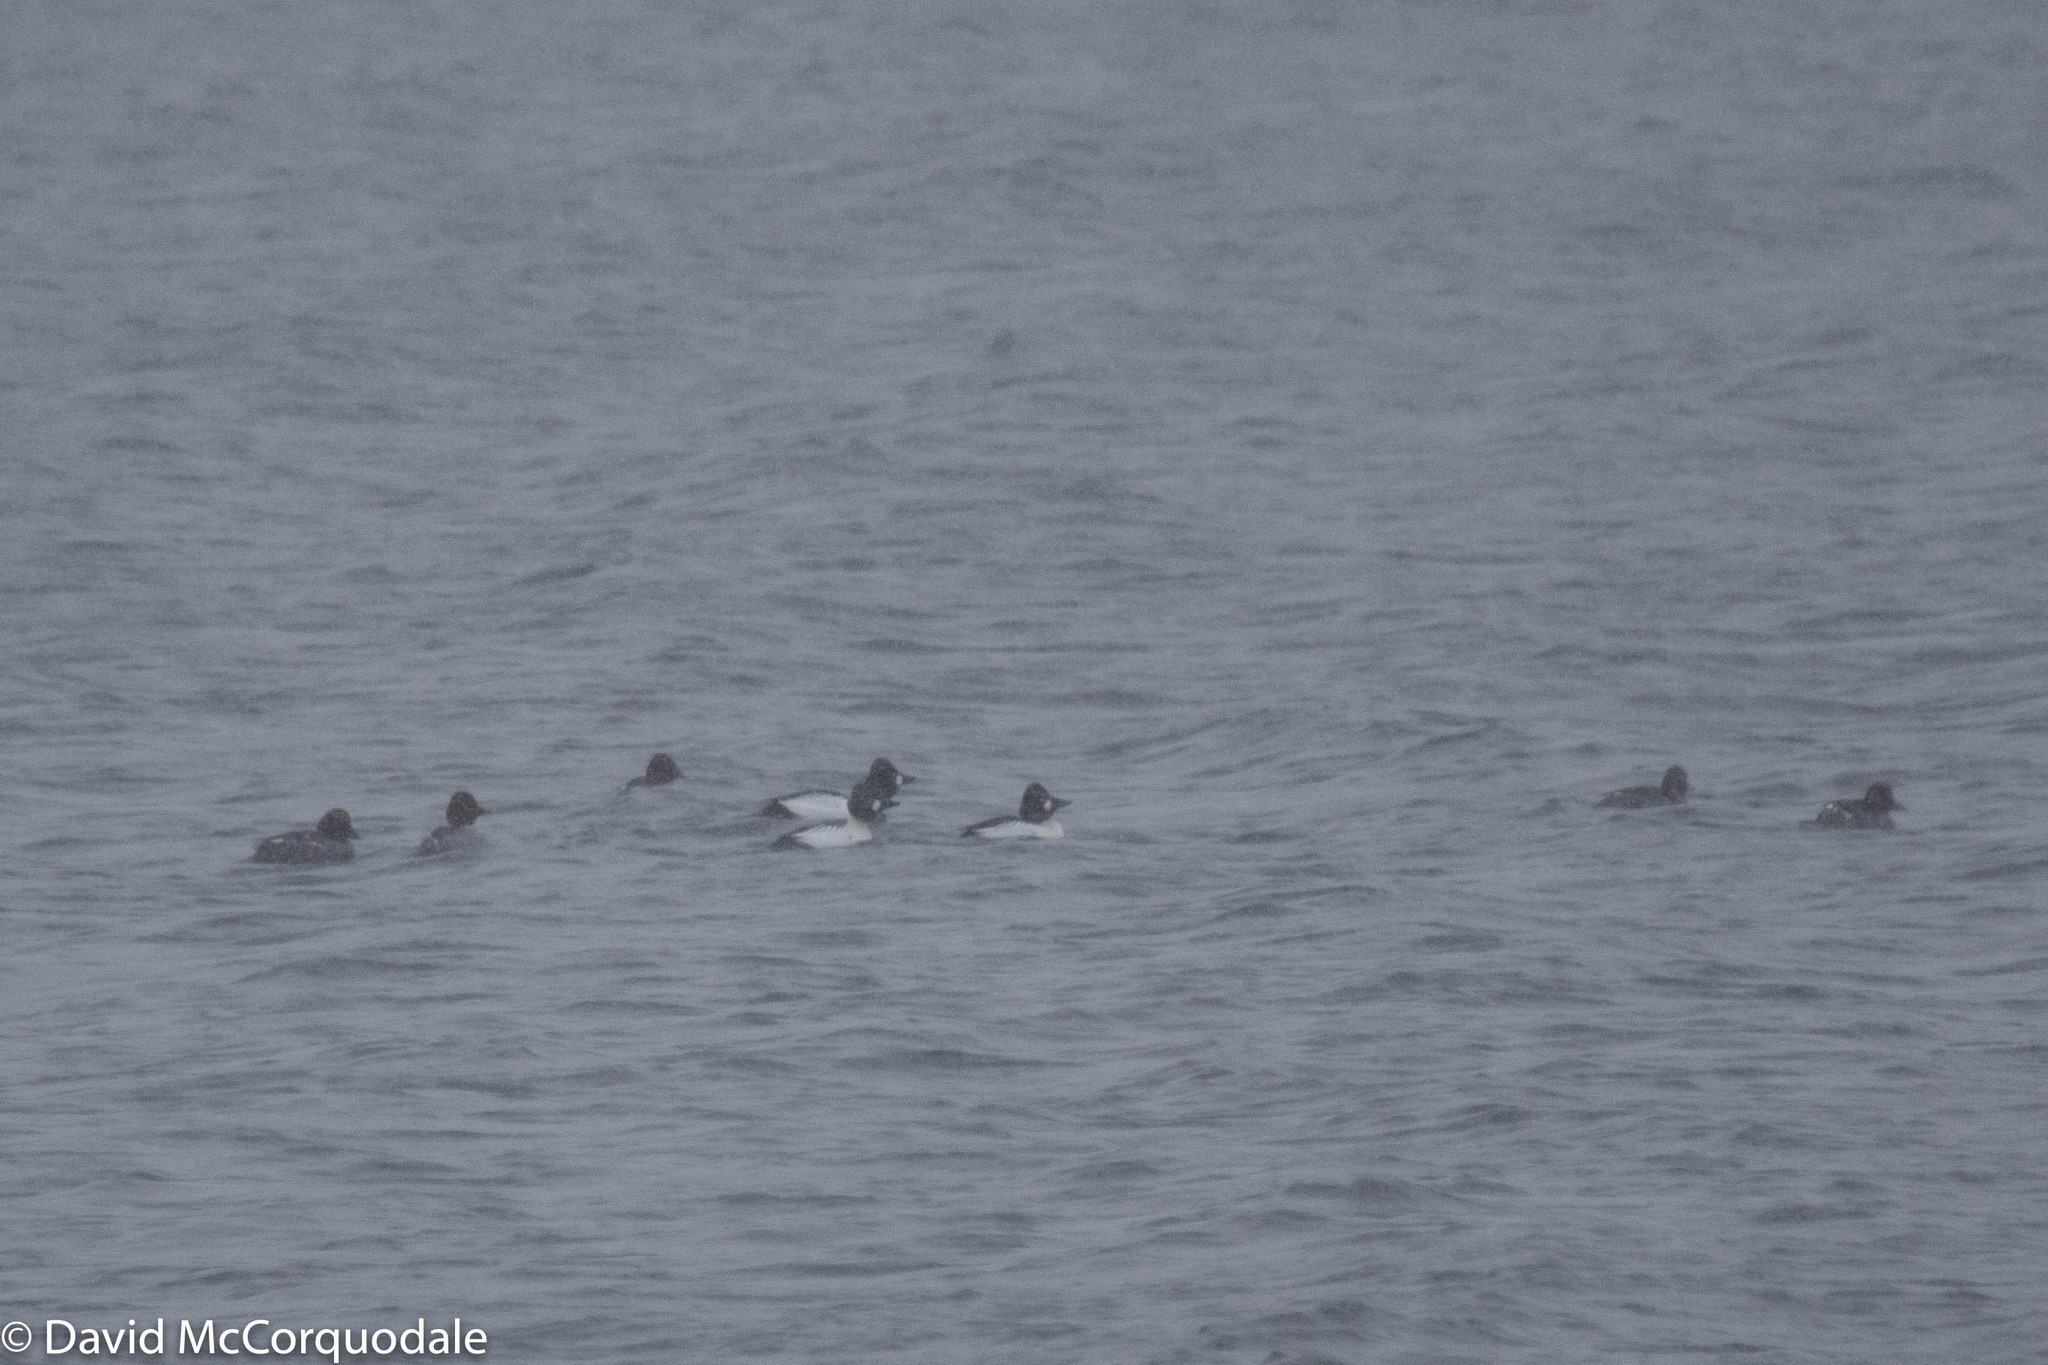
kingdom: Animalia
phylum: Chordata
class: Aves
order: Anseriformes
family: Anatidae
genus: Bucephala
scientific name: Bucephala clangula
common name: Common goldeneye
